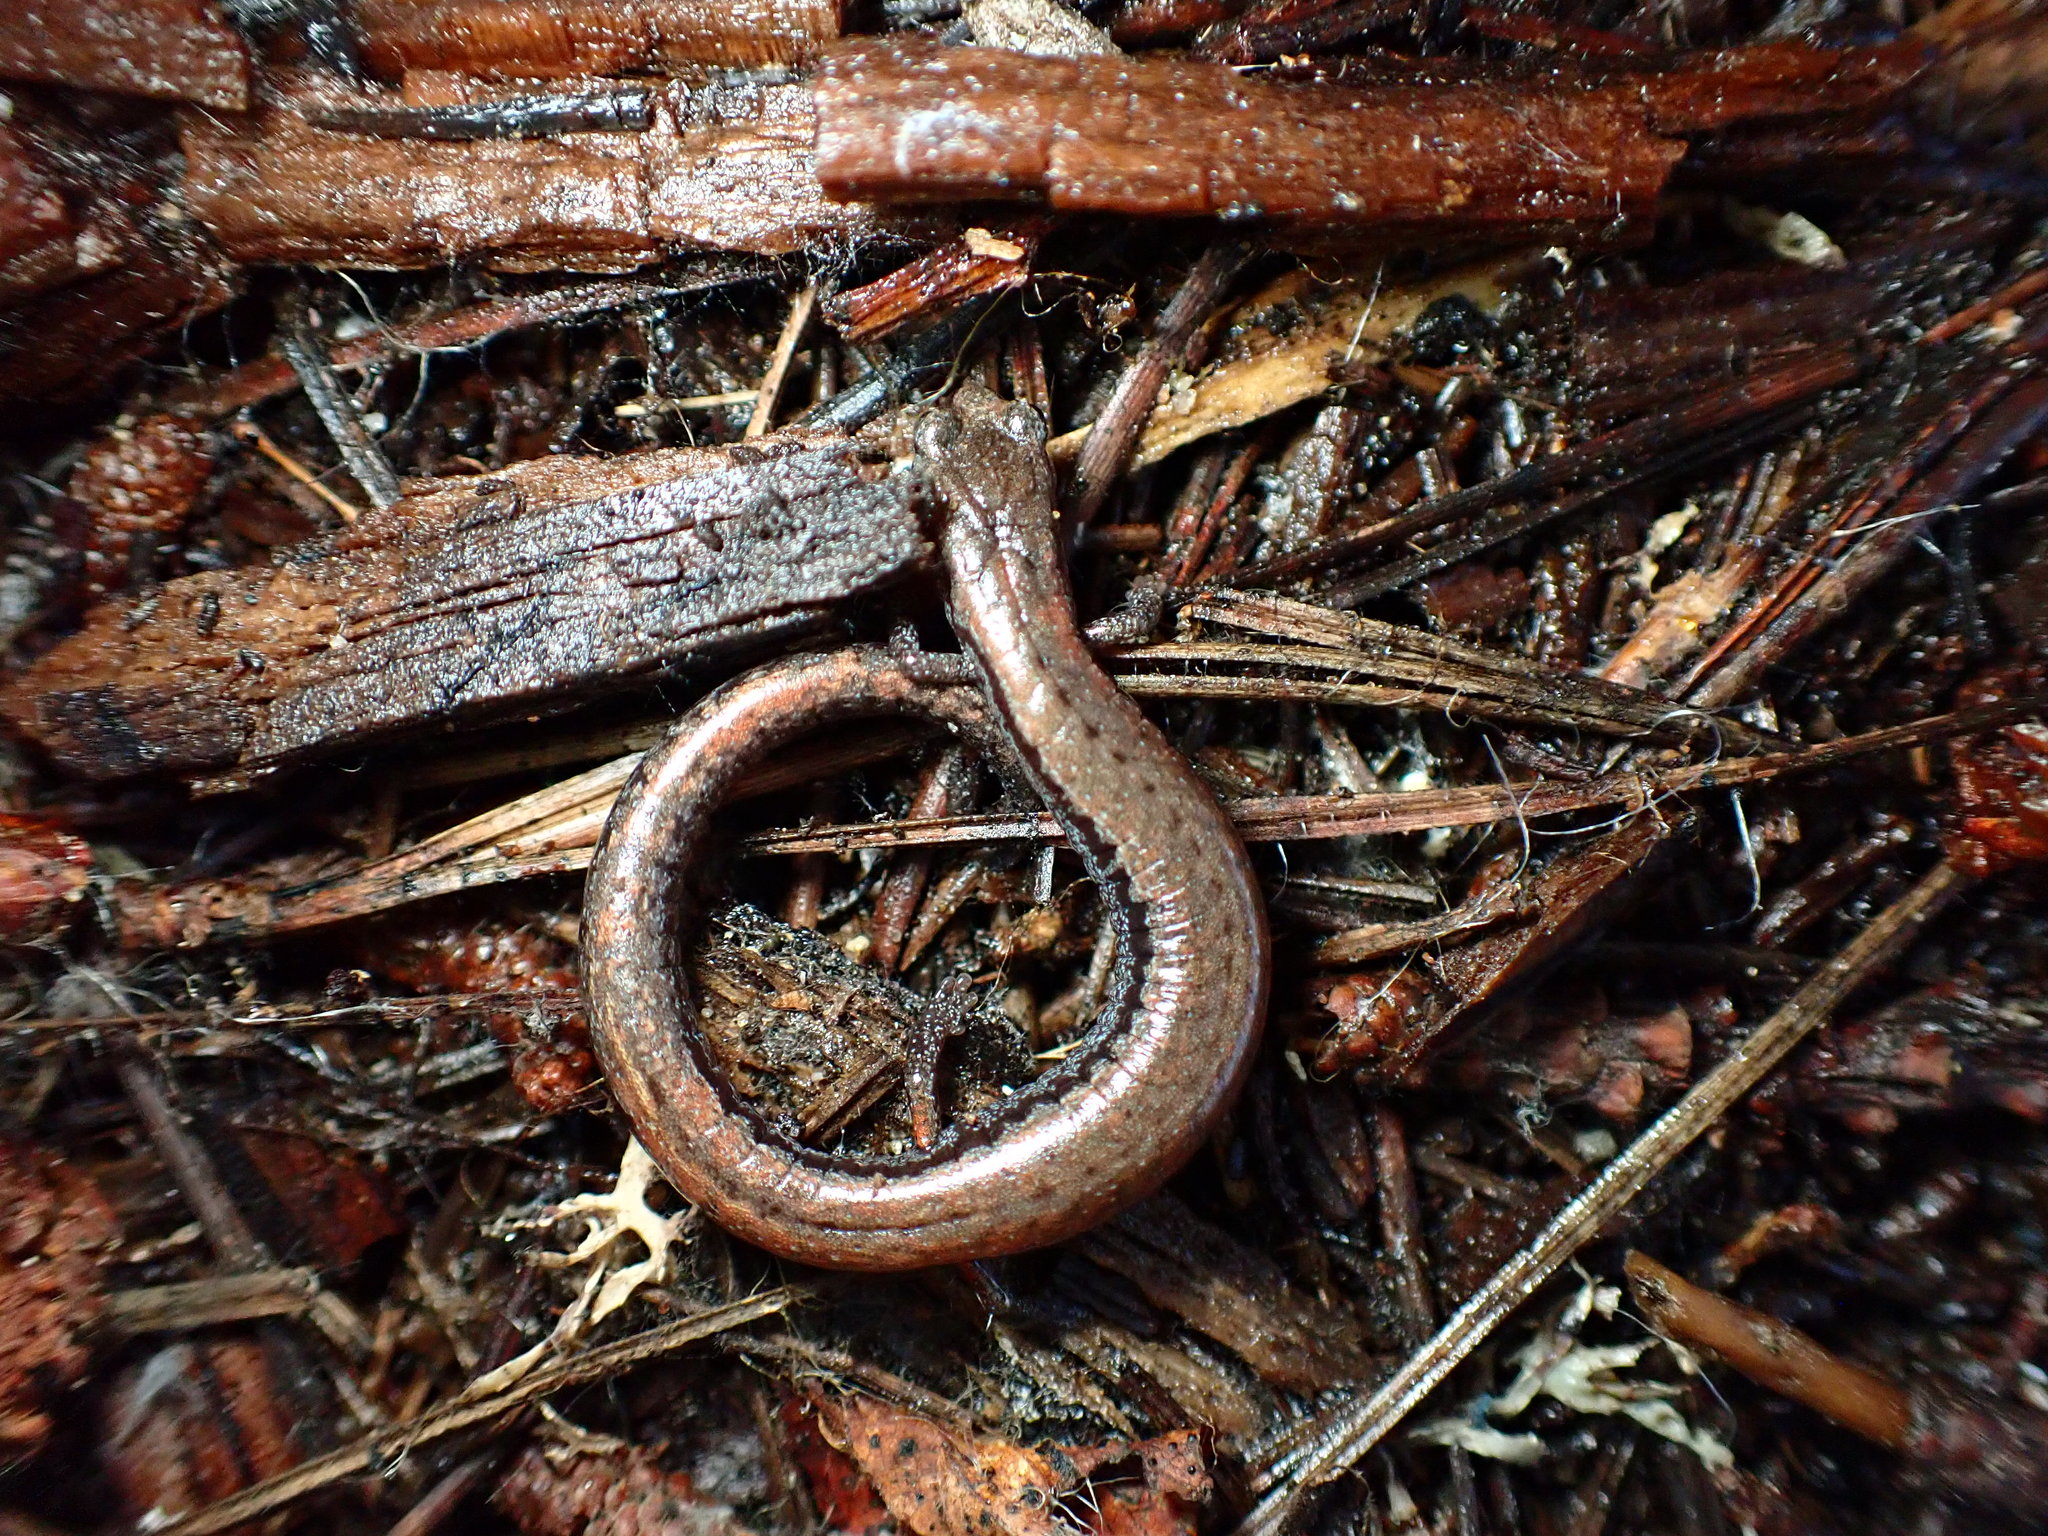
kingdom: Animalia
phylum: Chordata
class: Amphibia
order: Caudata
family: Plethodontidae
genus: Batrachoseps
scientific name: Batrachoseps attenuatus
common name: California slender salamander
